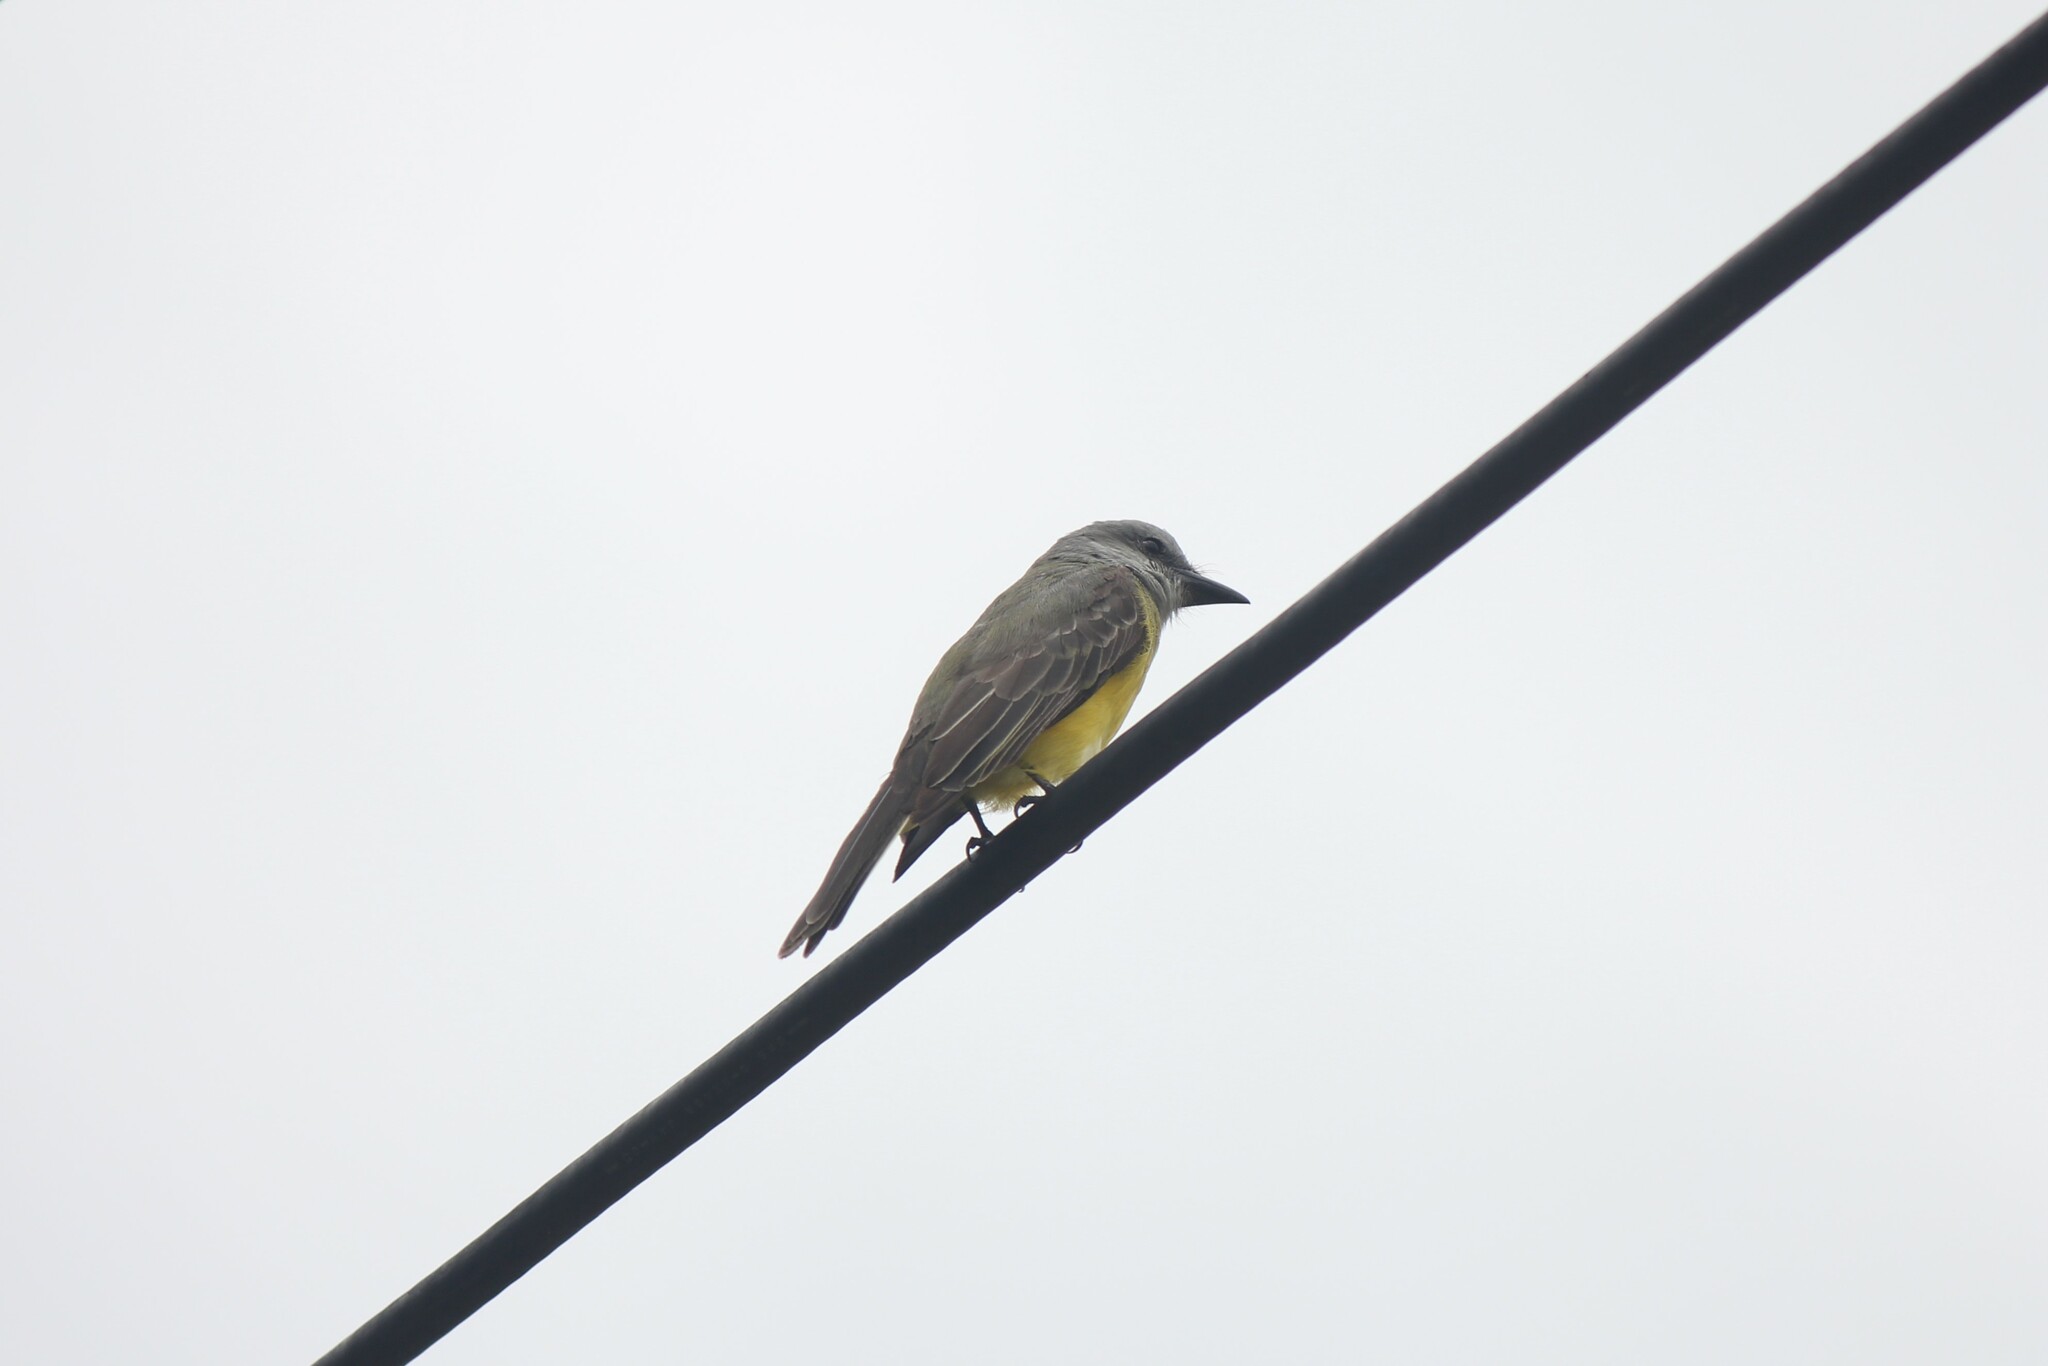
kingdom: Animalia
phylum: Chordata
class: Aves
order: Passeriformes
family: Tyrannidae
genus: Tyrannus
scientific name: Tyrannus melancholicus
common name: Tropical kingbird
